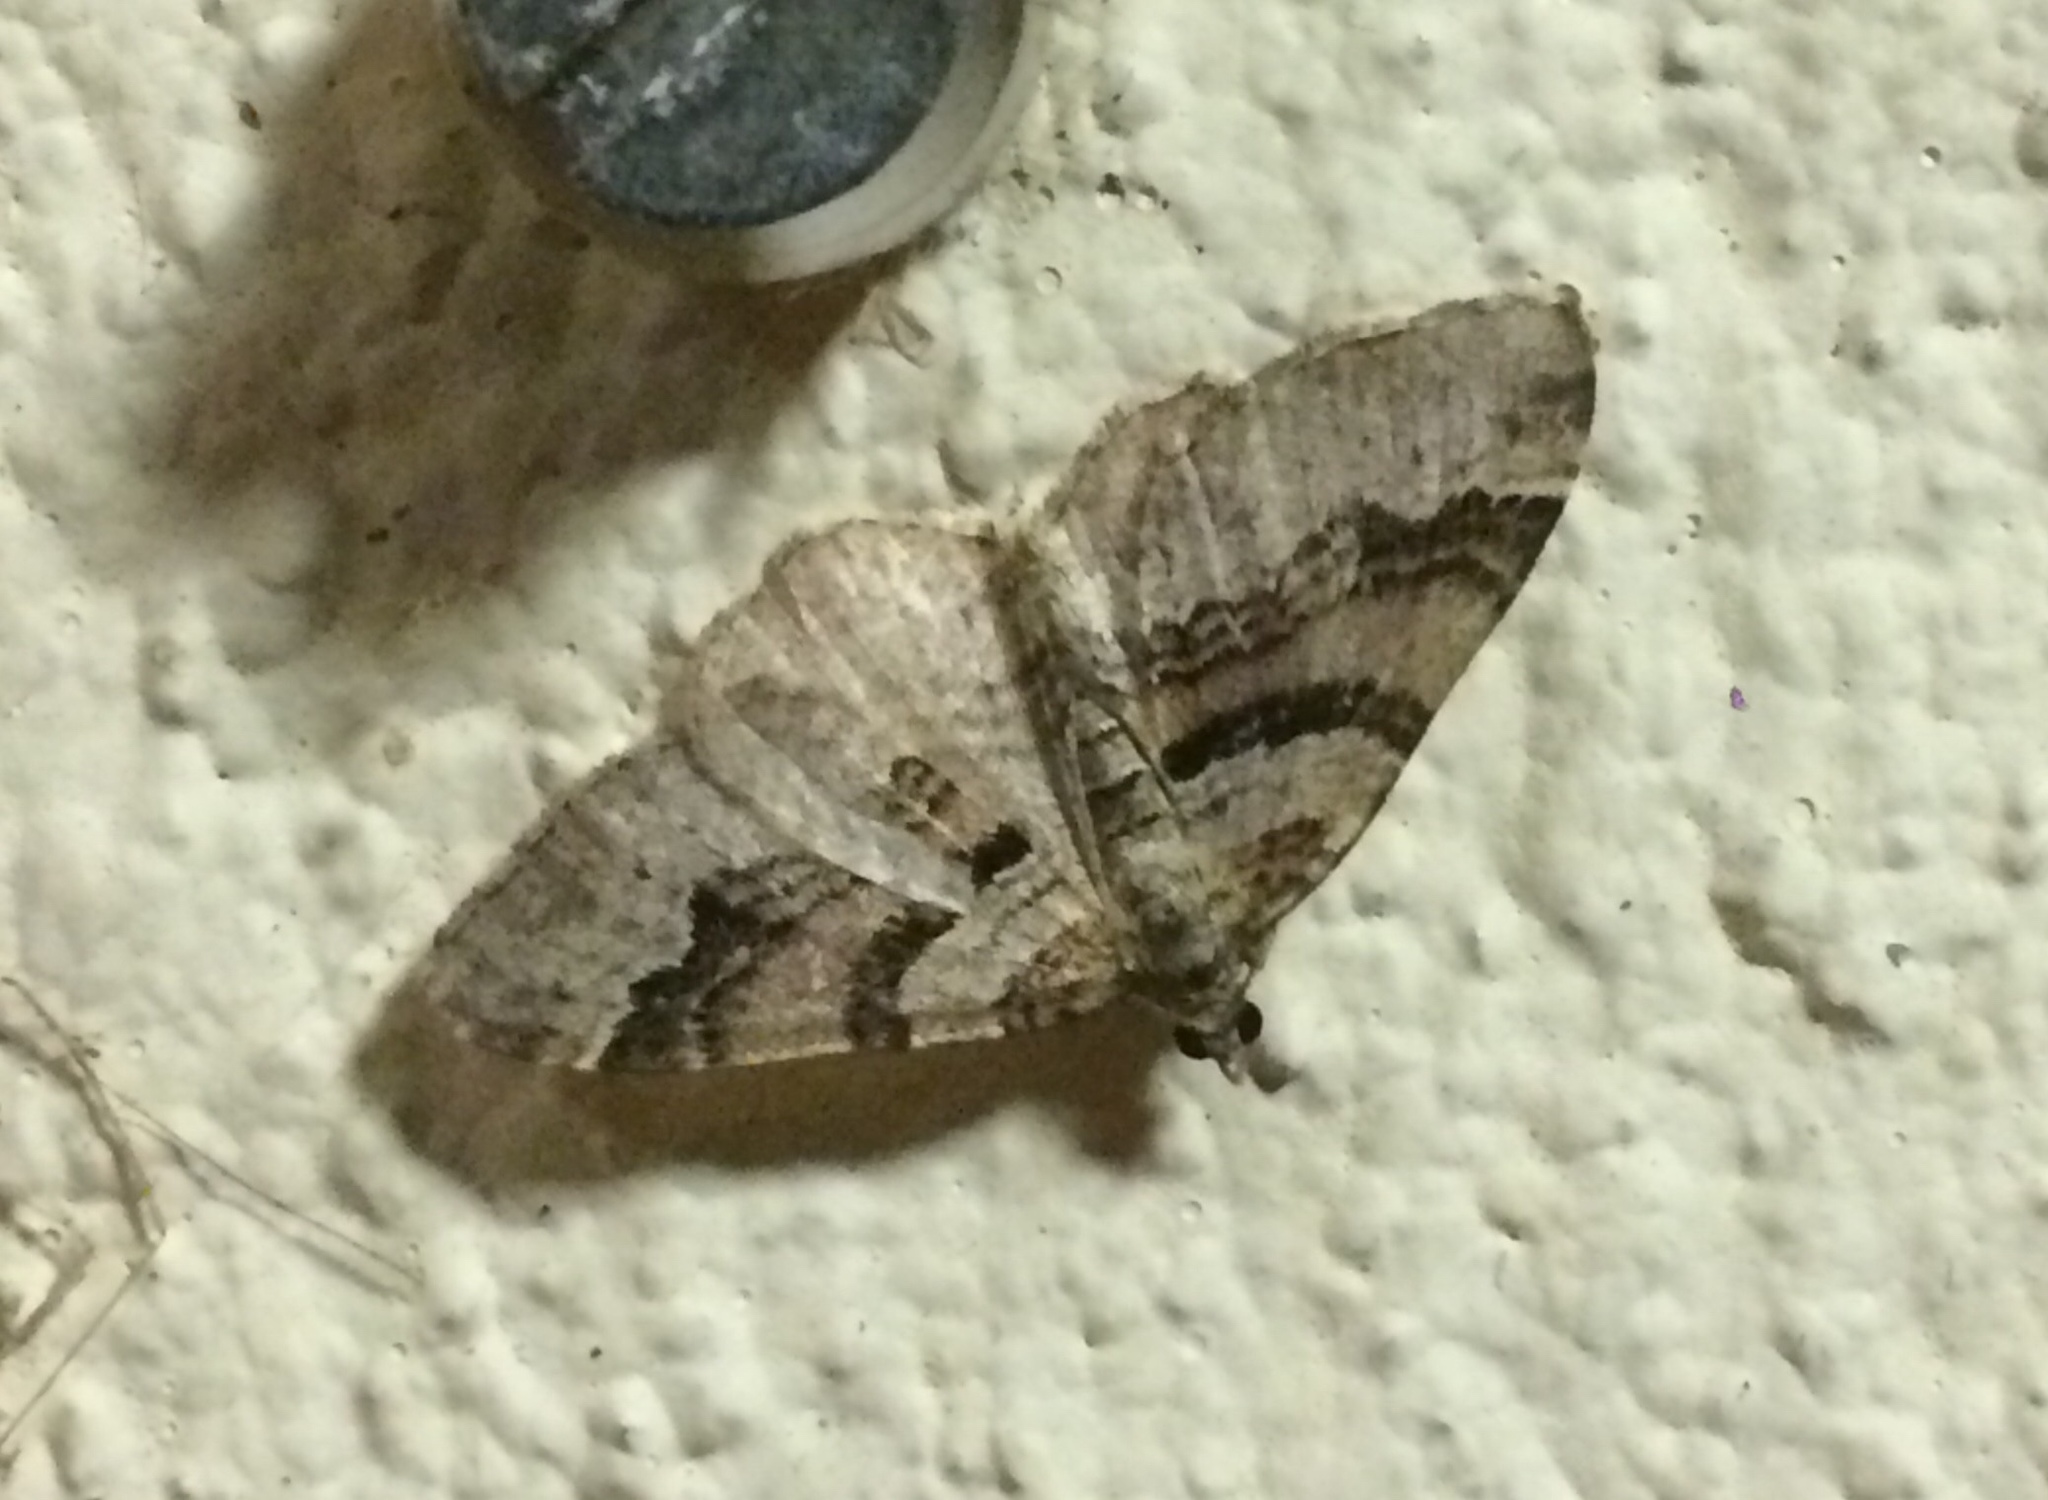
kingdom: Animalia
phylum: Arthropoda
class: Insecta
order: Lepidoptera
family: Geometridae
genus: Xanthorhoe
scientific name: Xanthorhoe designata
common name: Flame carpet
